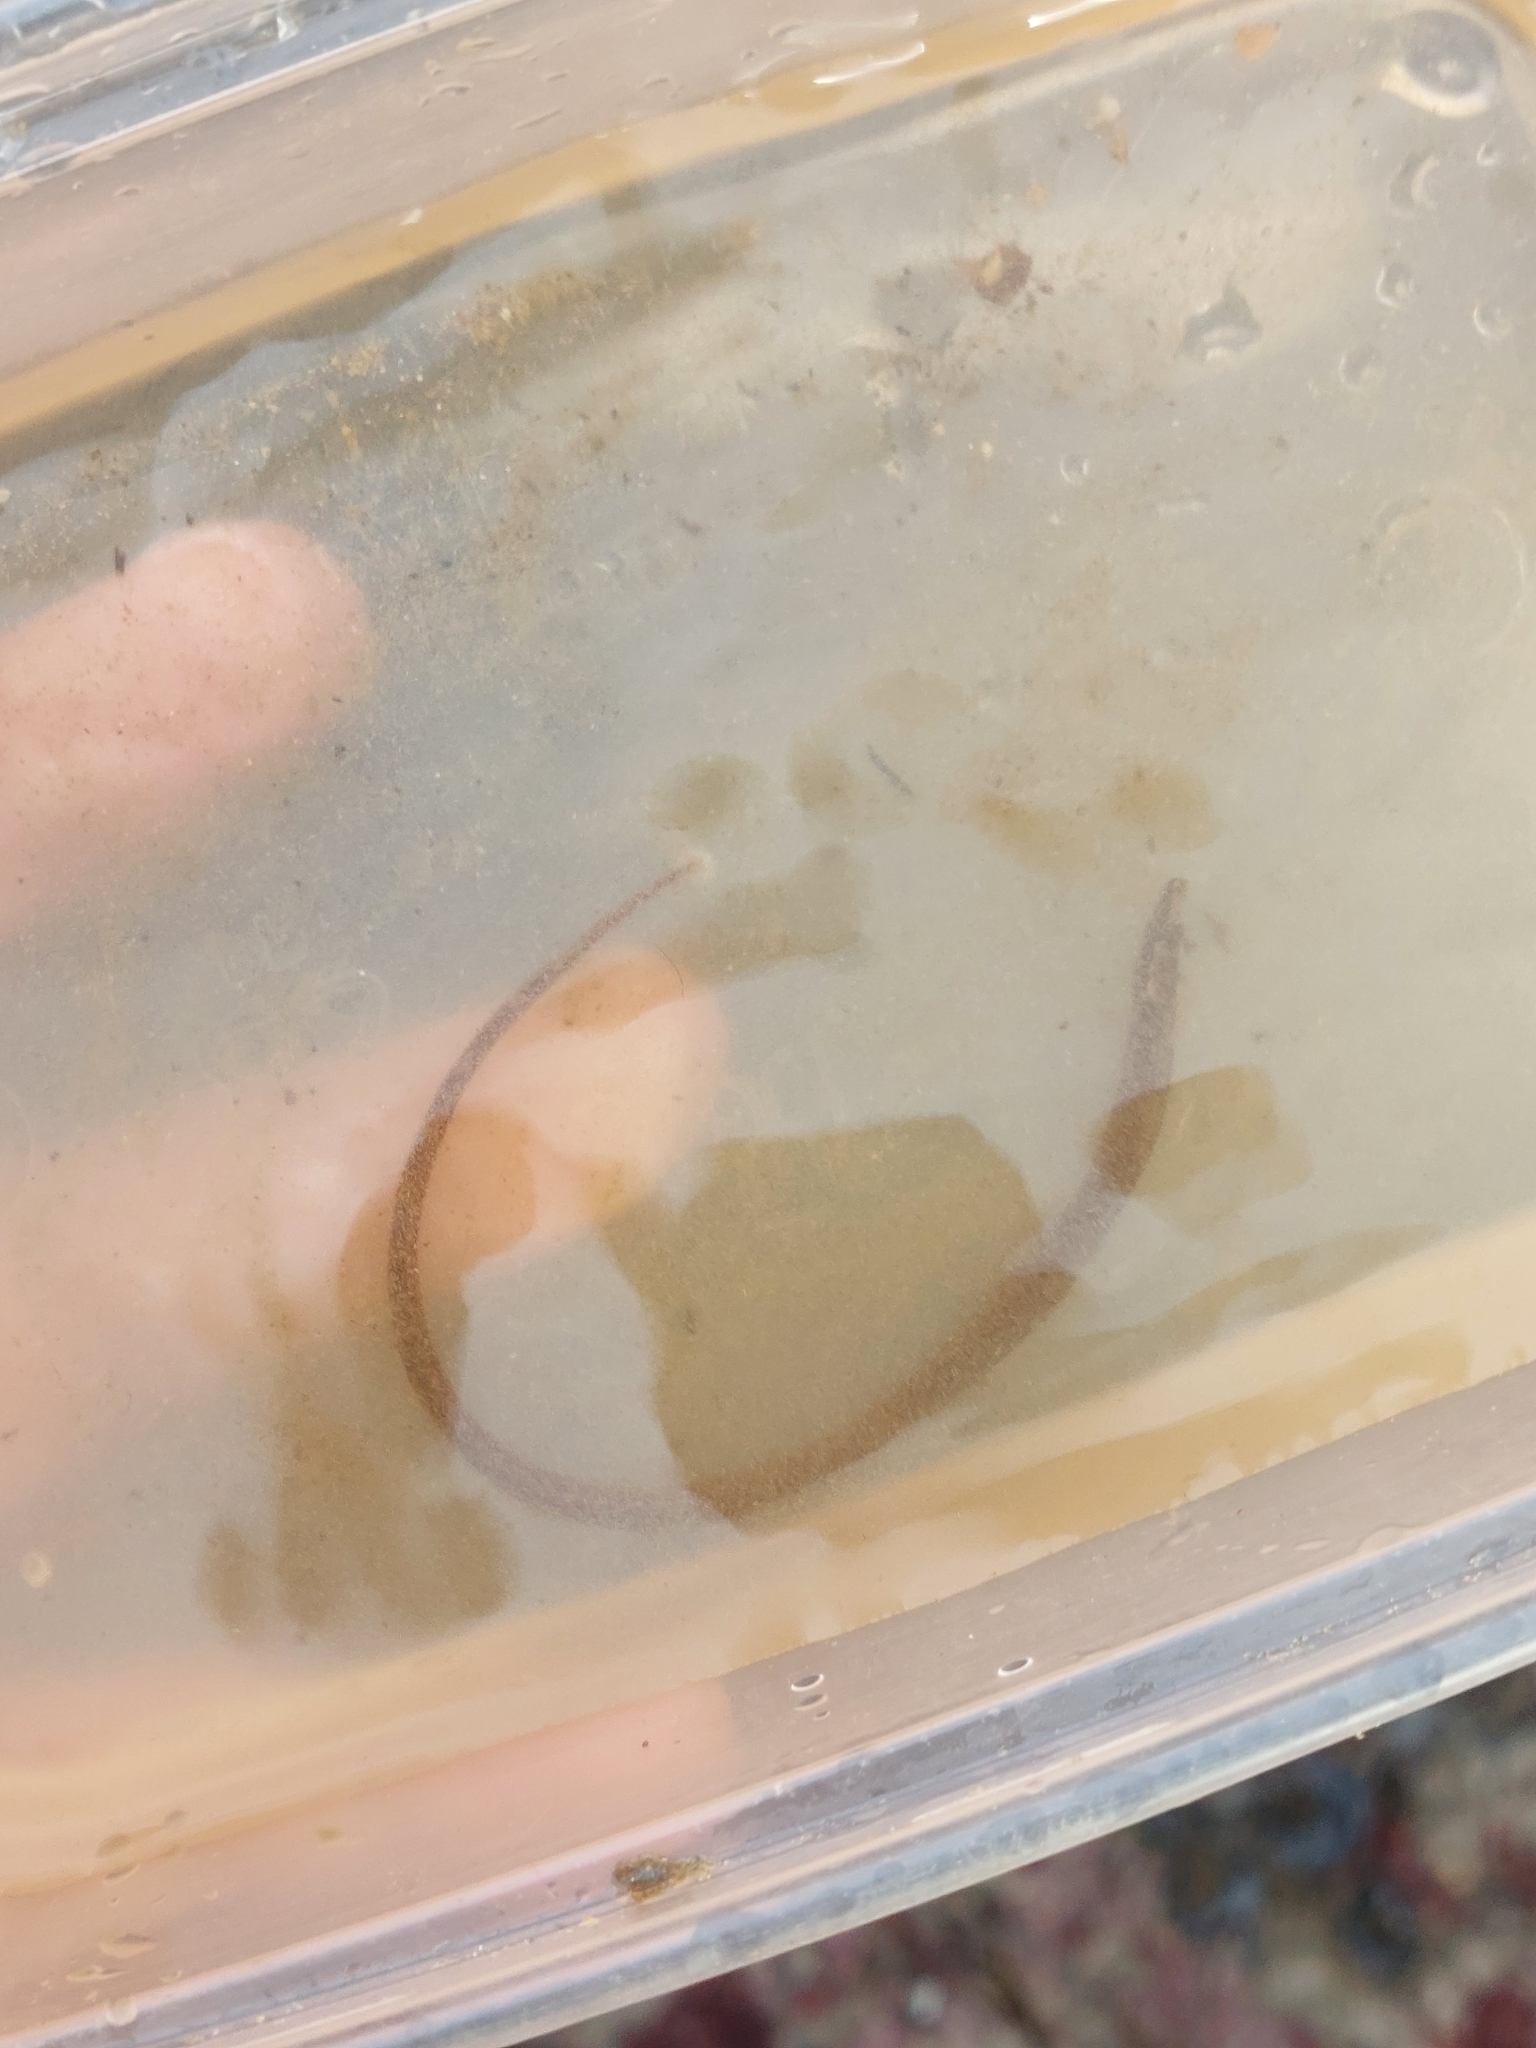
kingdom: Animalia
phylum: Chordata
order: Syngnathiformes
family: Syngnathidae
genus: Nerophis
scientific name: Nerophis lumbriciformis
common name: Worm pipefish
